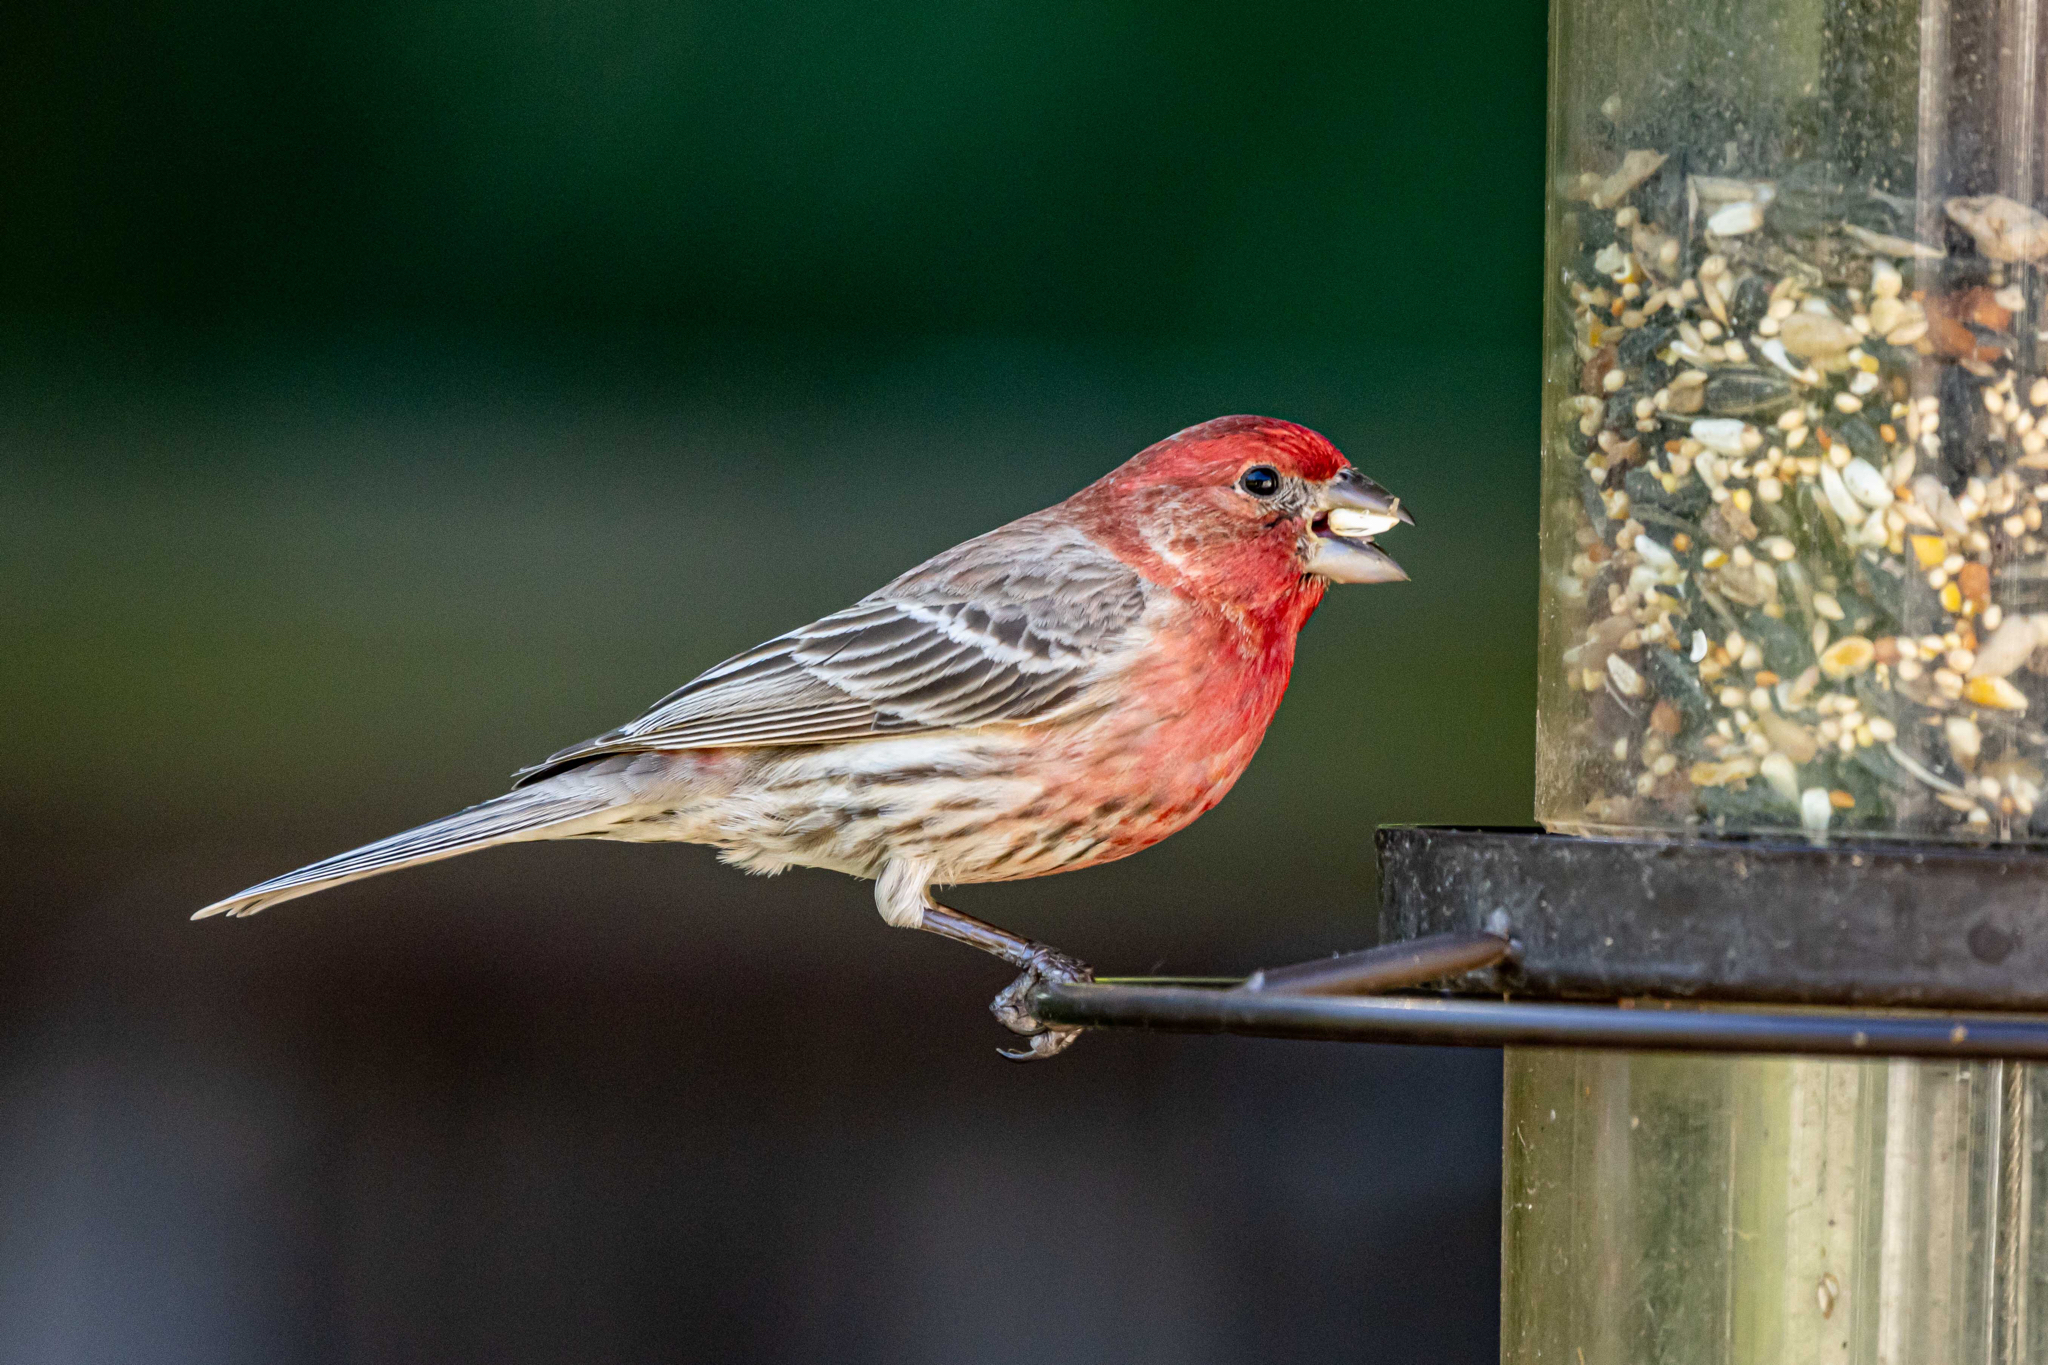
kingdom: Animalia
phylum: Chordata
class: Aves
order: Passeriformes
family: Fringillidae
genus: Haemorhous
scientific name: Haemorhous mexicanus
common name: House finch
